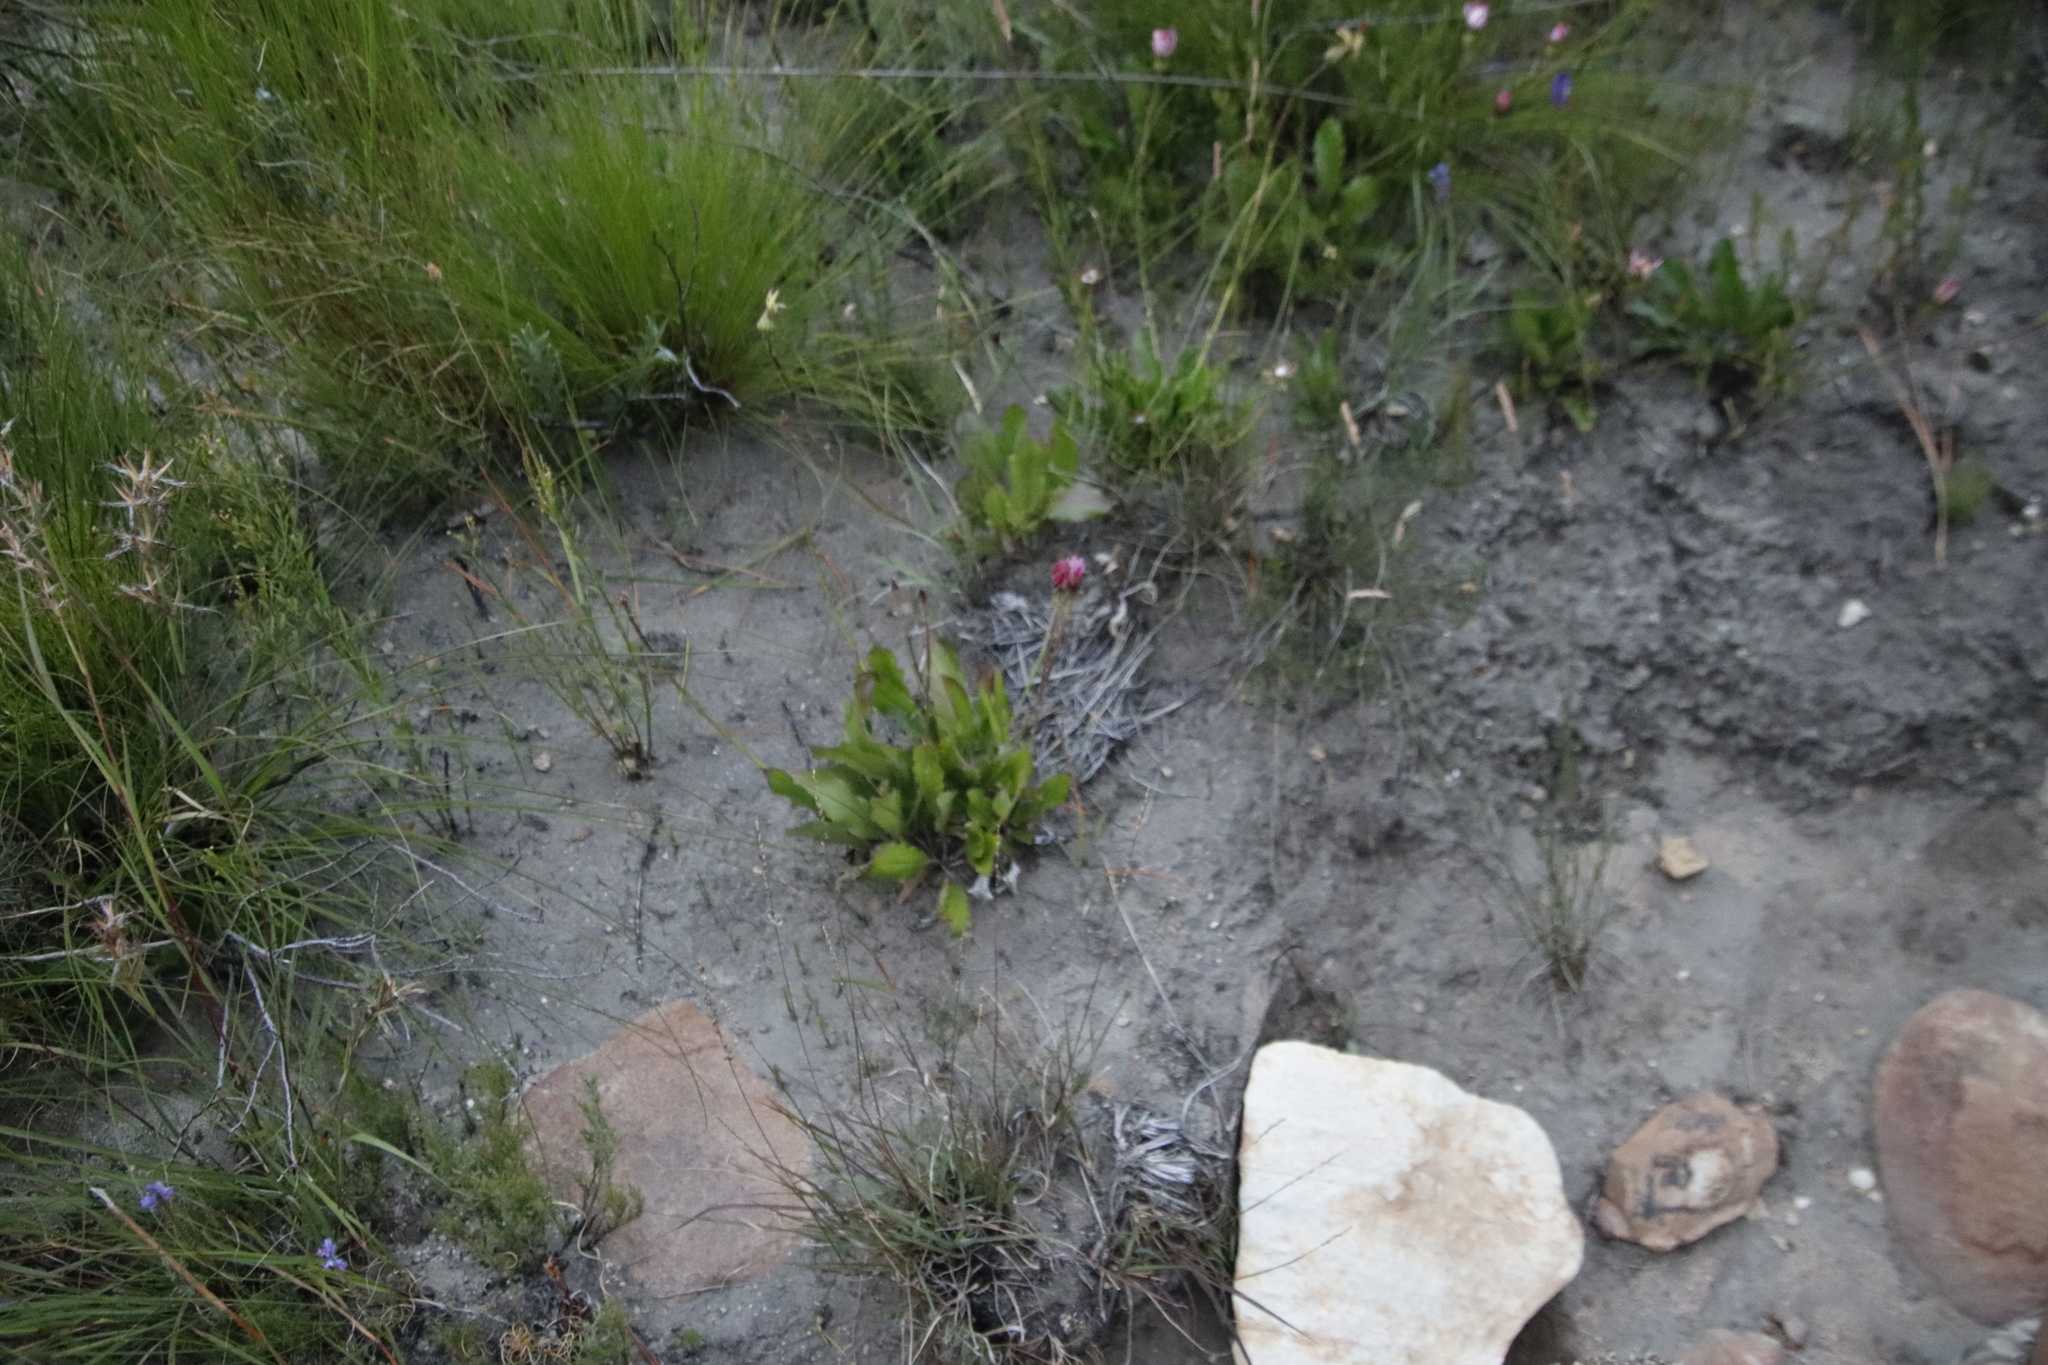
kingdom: Plantae
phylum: Tracheophyta
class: Magnoliopsida
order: Asterales
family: Asteraceae
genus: Gerbera
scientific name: Gerbera crocea
